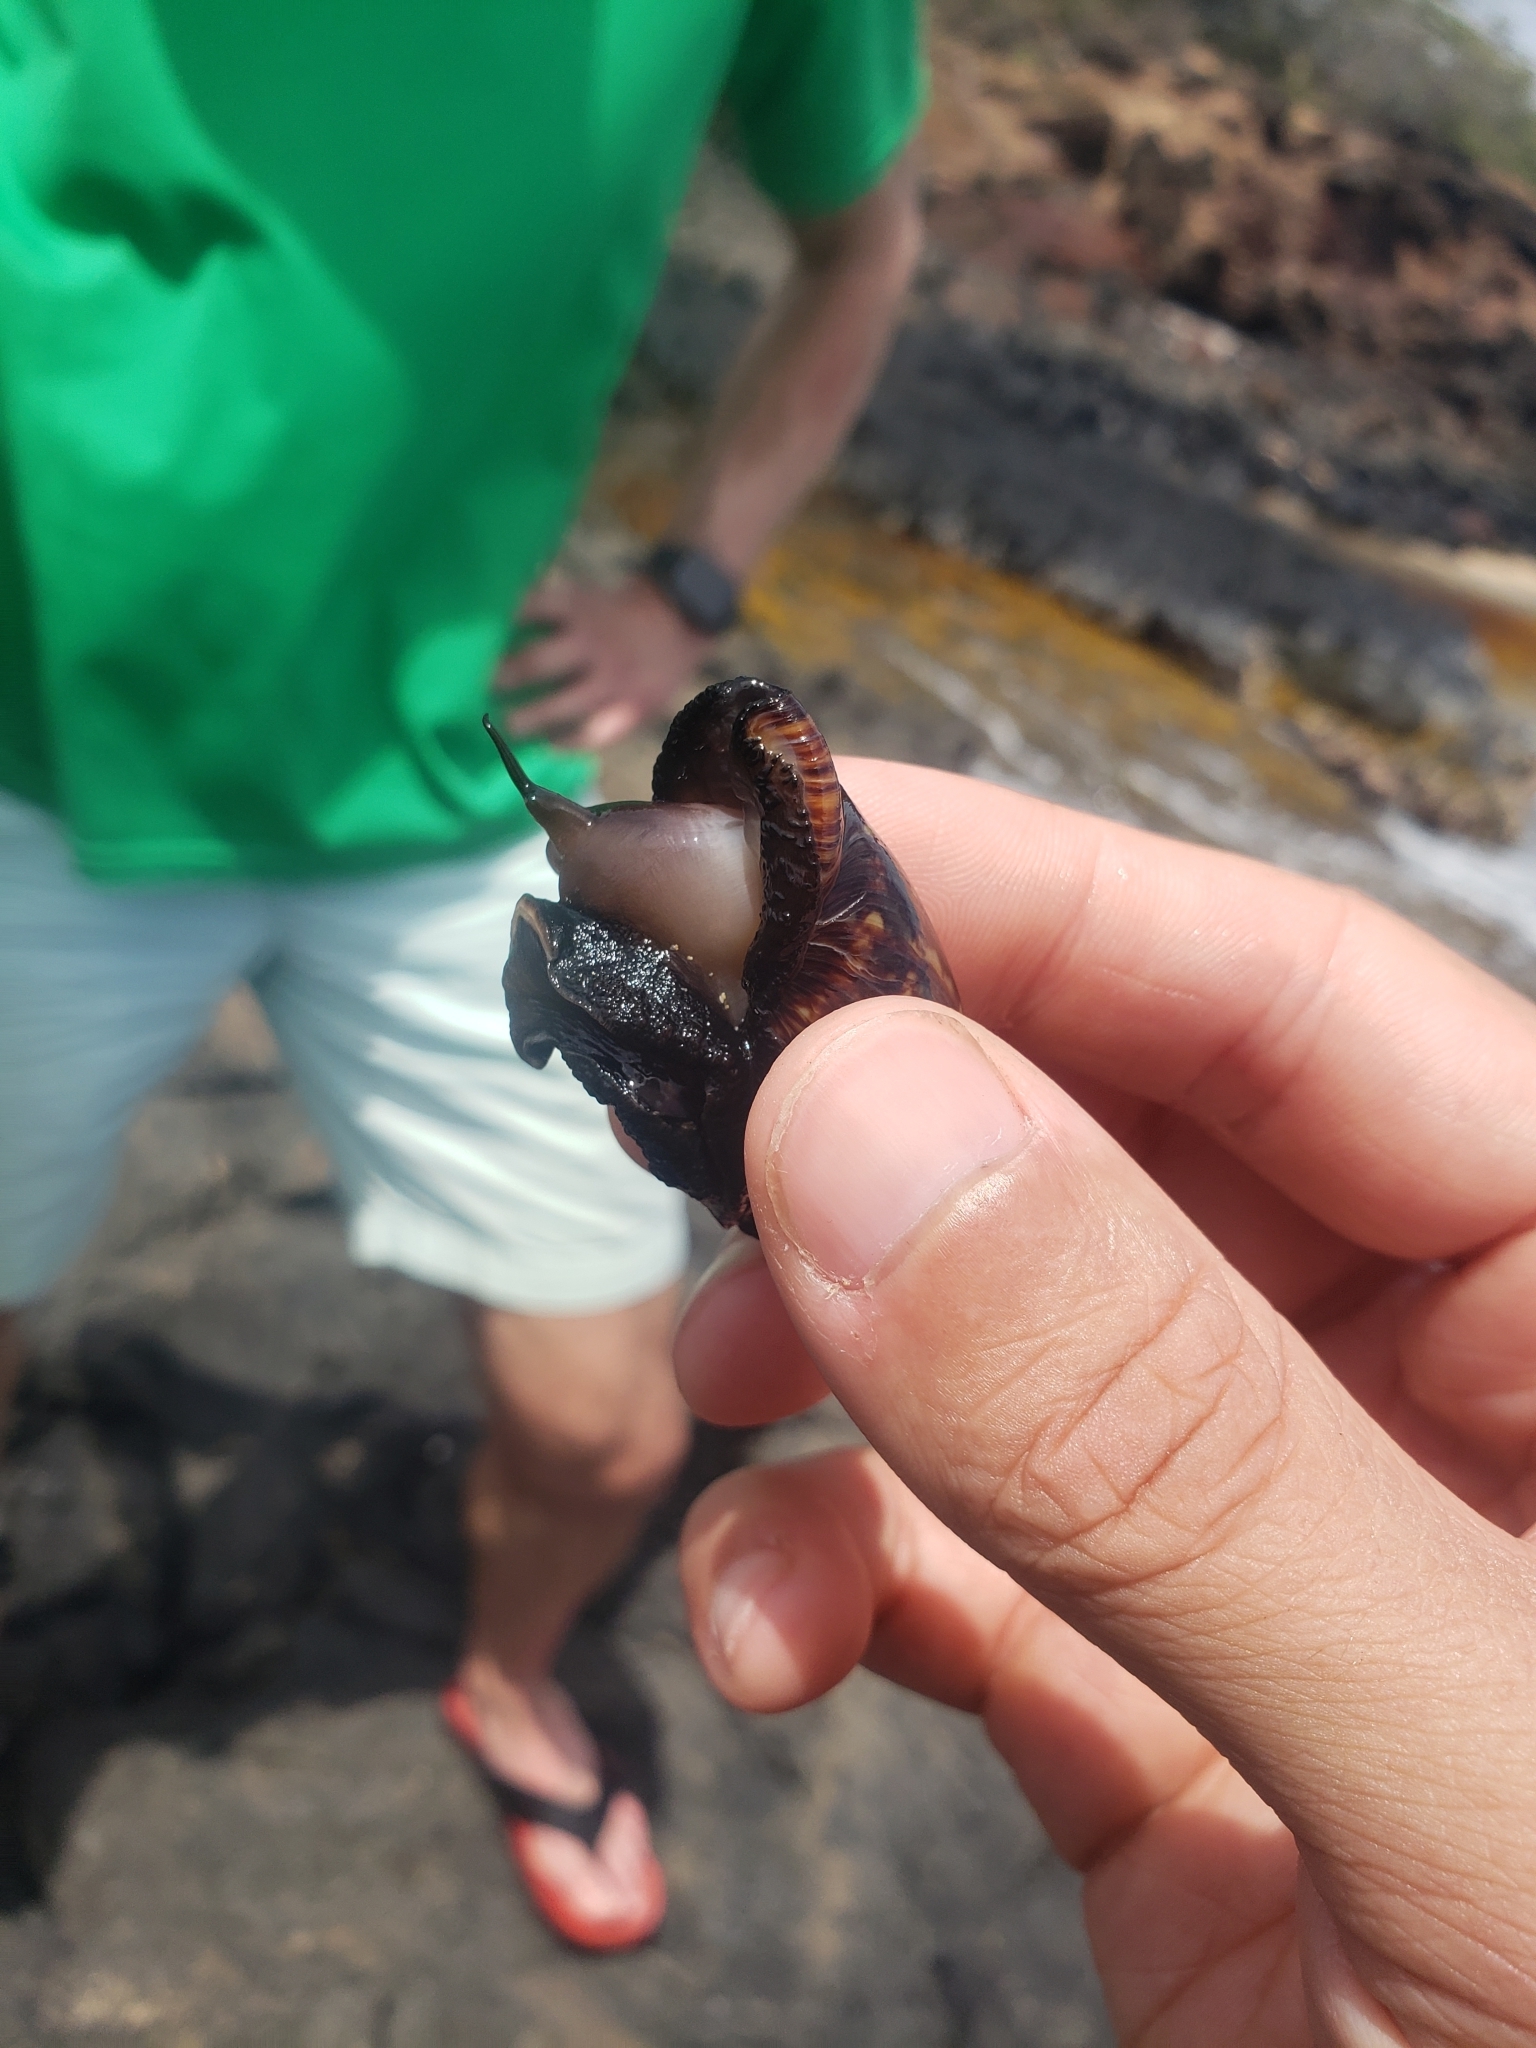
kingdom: Animalia
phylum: Mollusca
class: Gastropoda
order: Littorinimorpha
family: Cypraeidae
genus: Mauritia
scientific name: Mauritia mauritiana
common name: Hump-backed cowrie
